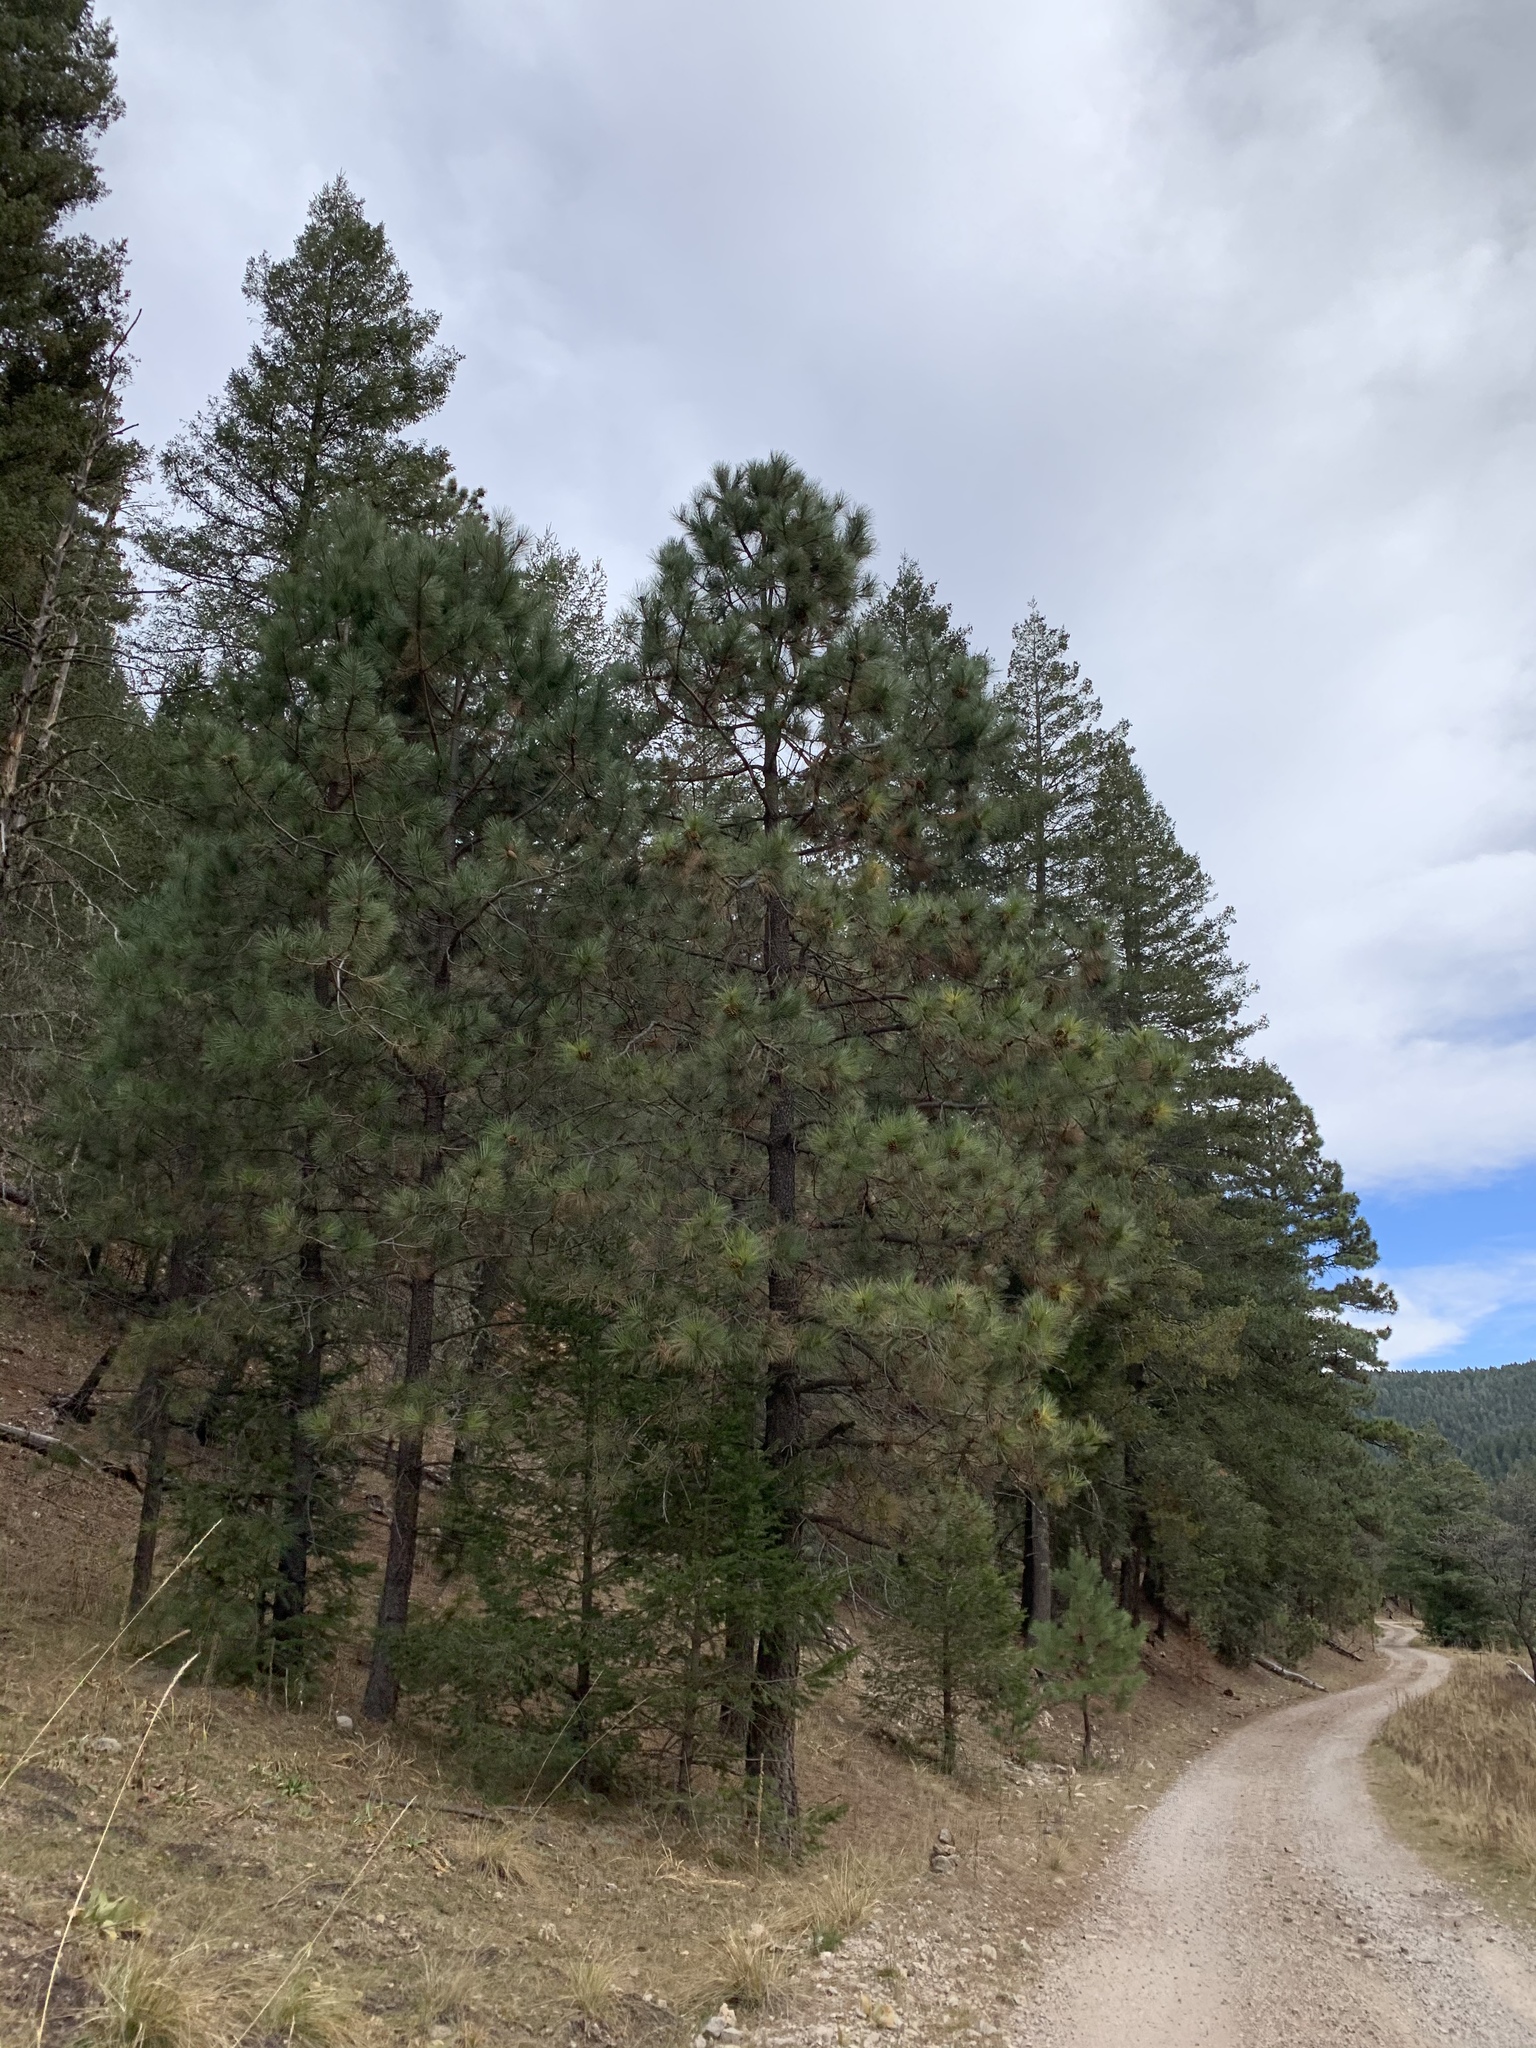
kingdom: Plantae
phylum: Tracheophyta
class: Pinopsida
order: Pinales
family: Pinaceae
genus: Pinus
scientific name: Pinus ponderosa
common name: Western yellow-pine
